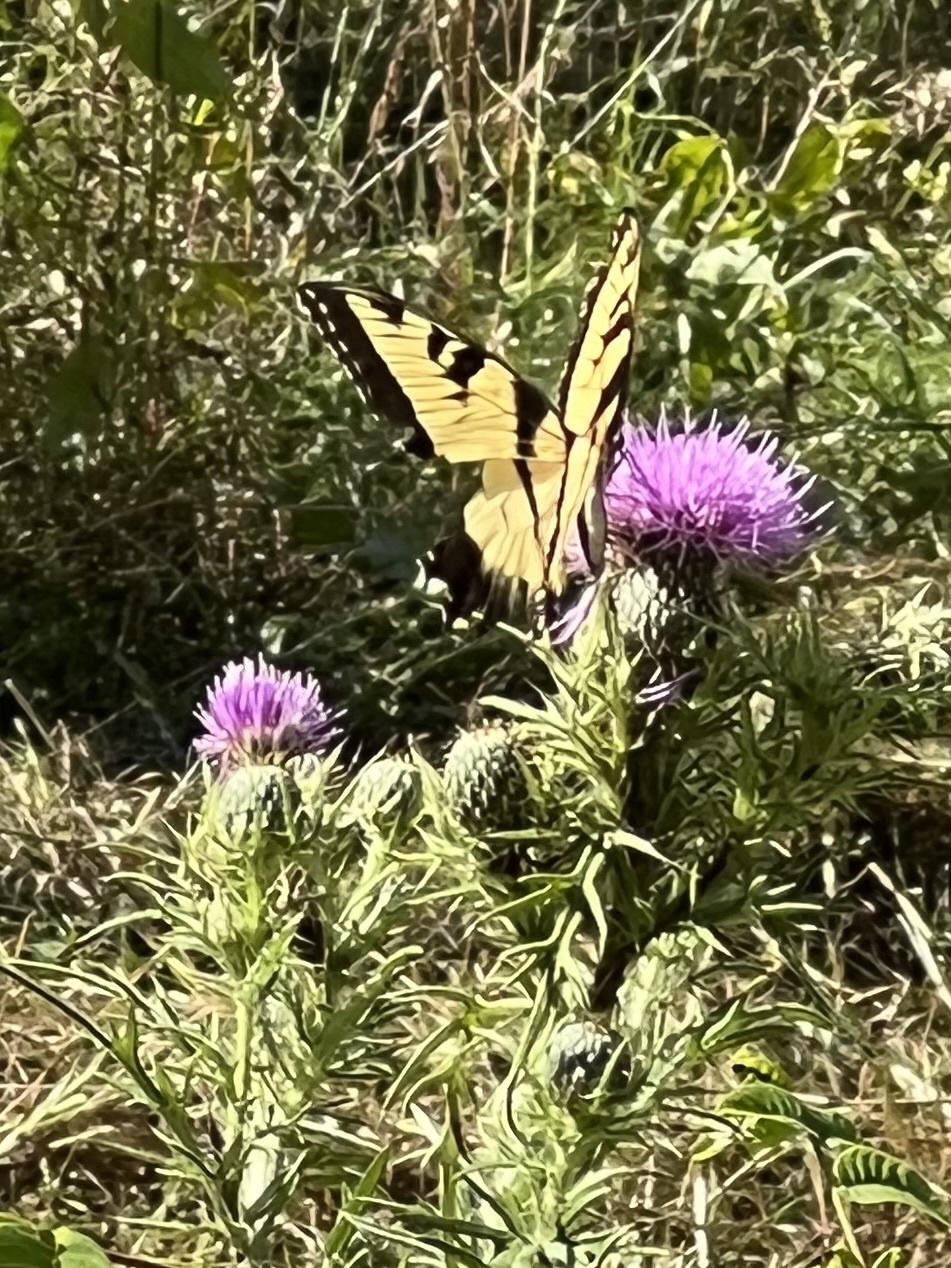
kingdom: Animalia
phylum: Arthropoda
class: Insecta
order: Lepidoptera
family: Papilionidae
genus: Papilio
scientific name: Papilio glaucus
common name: Tiger swallowtail
